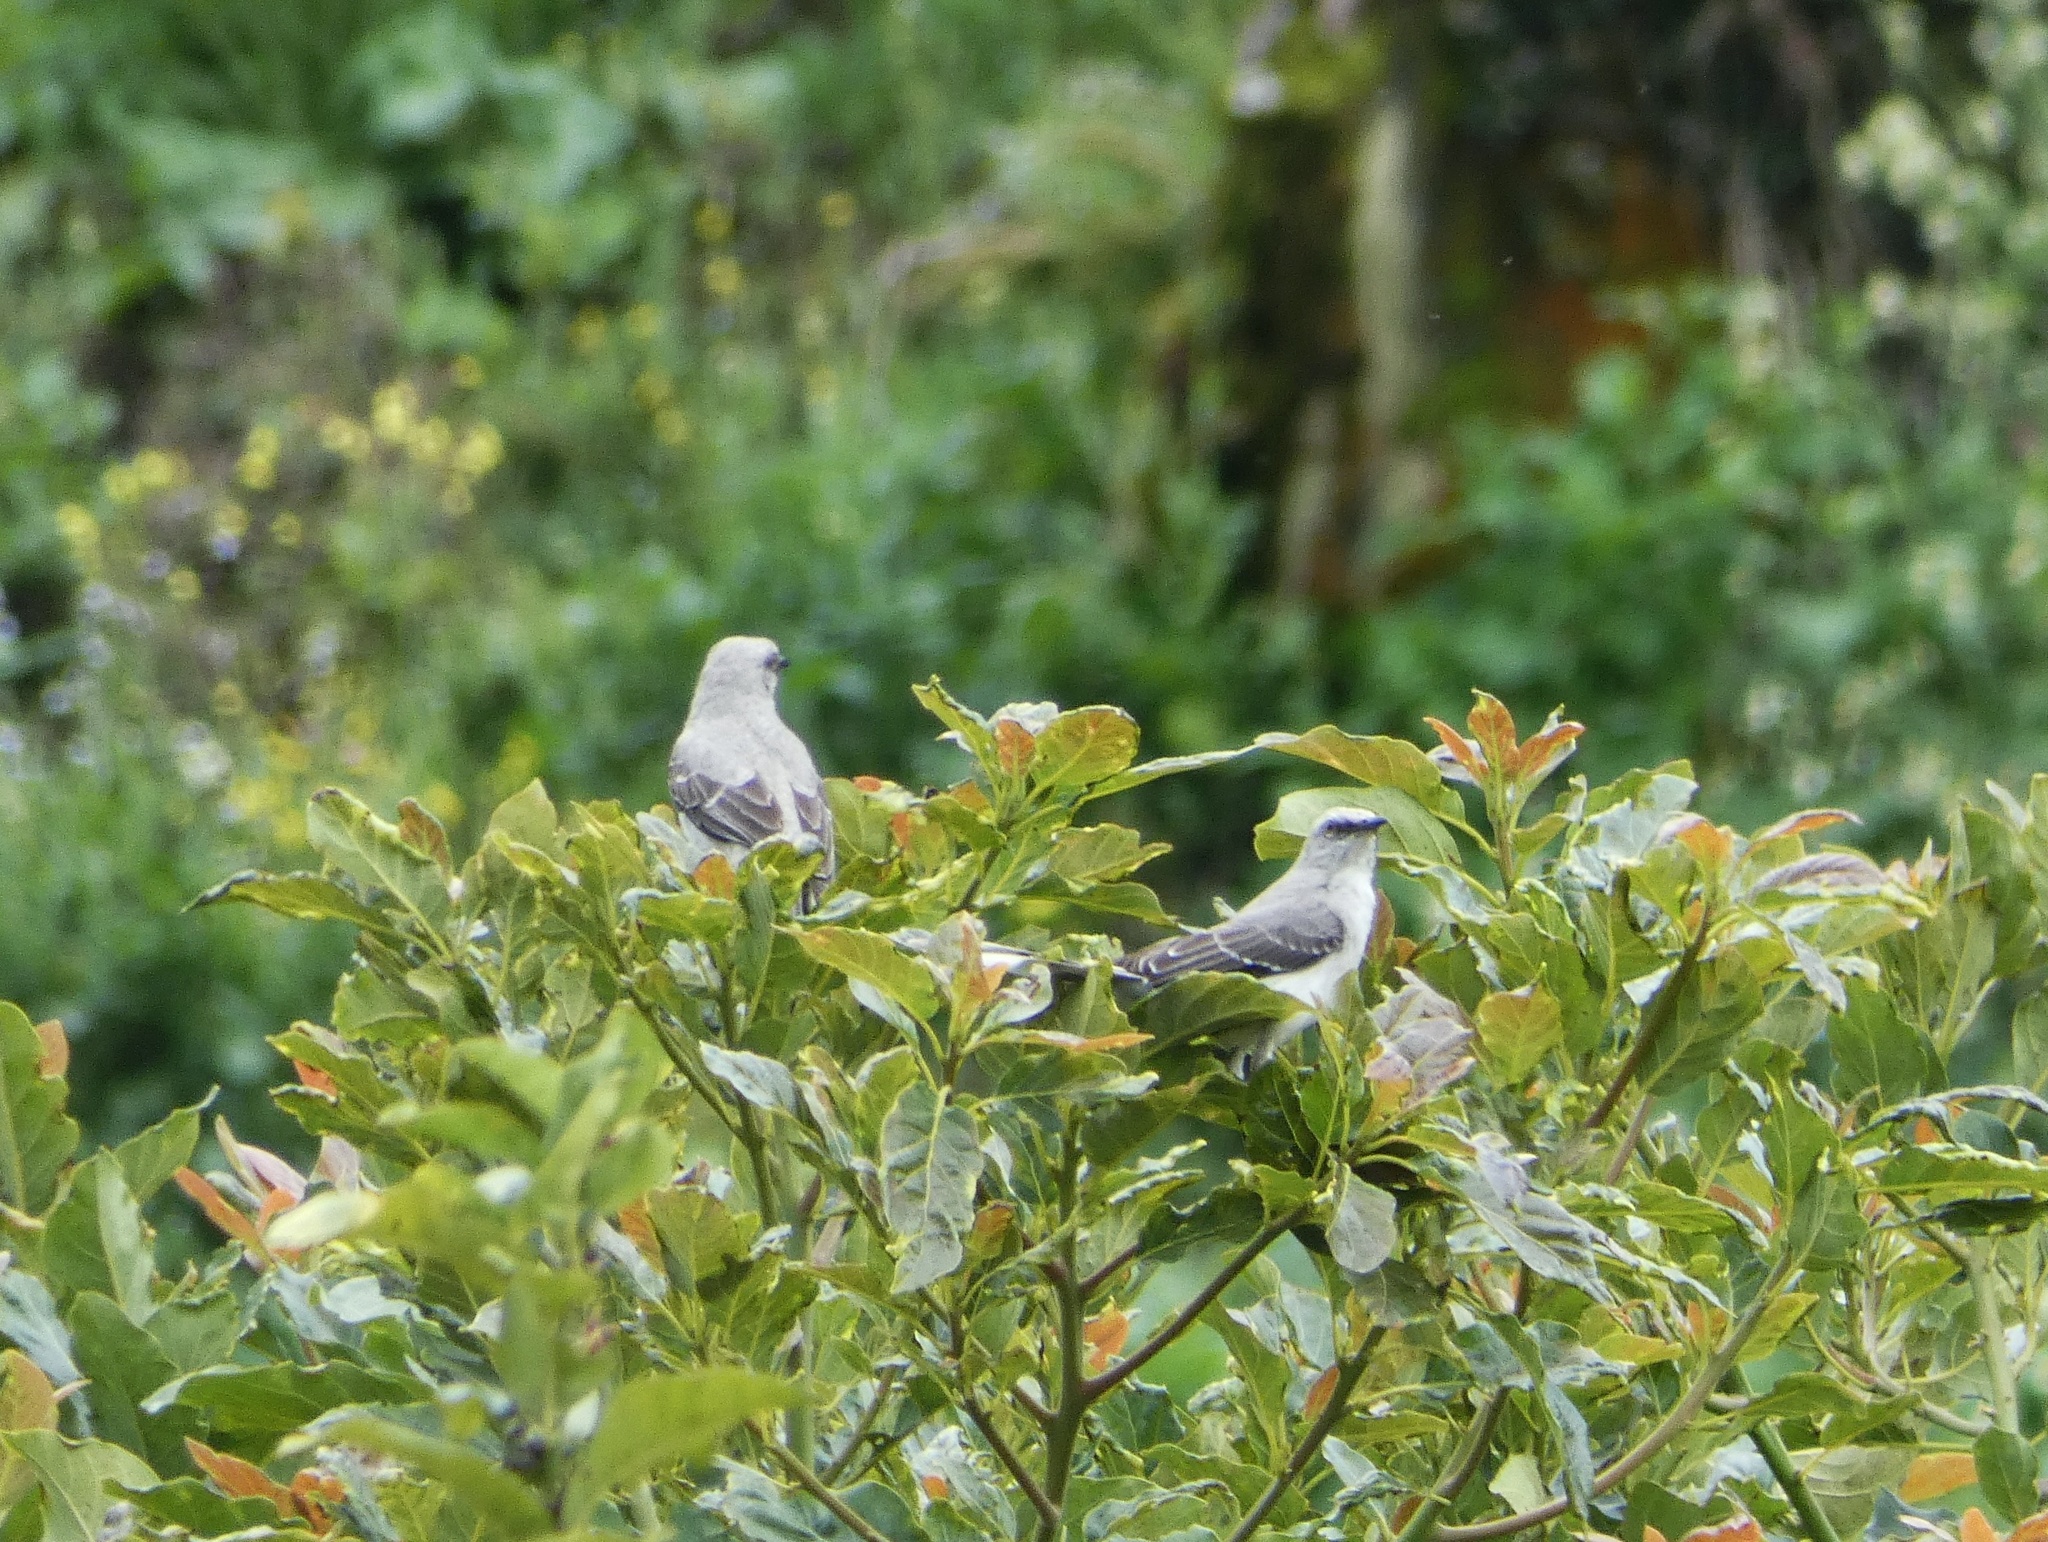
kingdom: Animalia
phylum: Chordata
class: Aves
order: Passeriformes
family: Mimidae
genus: Mimus
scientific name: Mimus gilvus
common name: Tropical mockingbird
